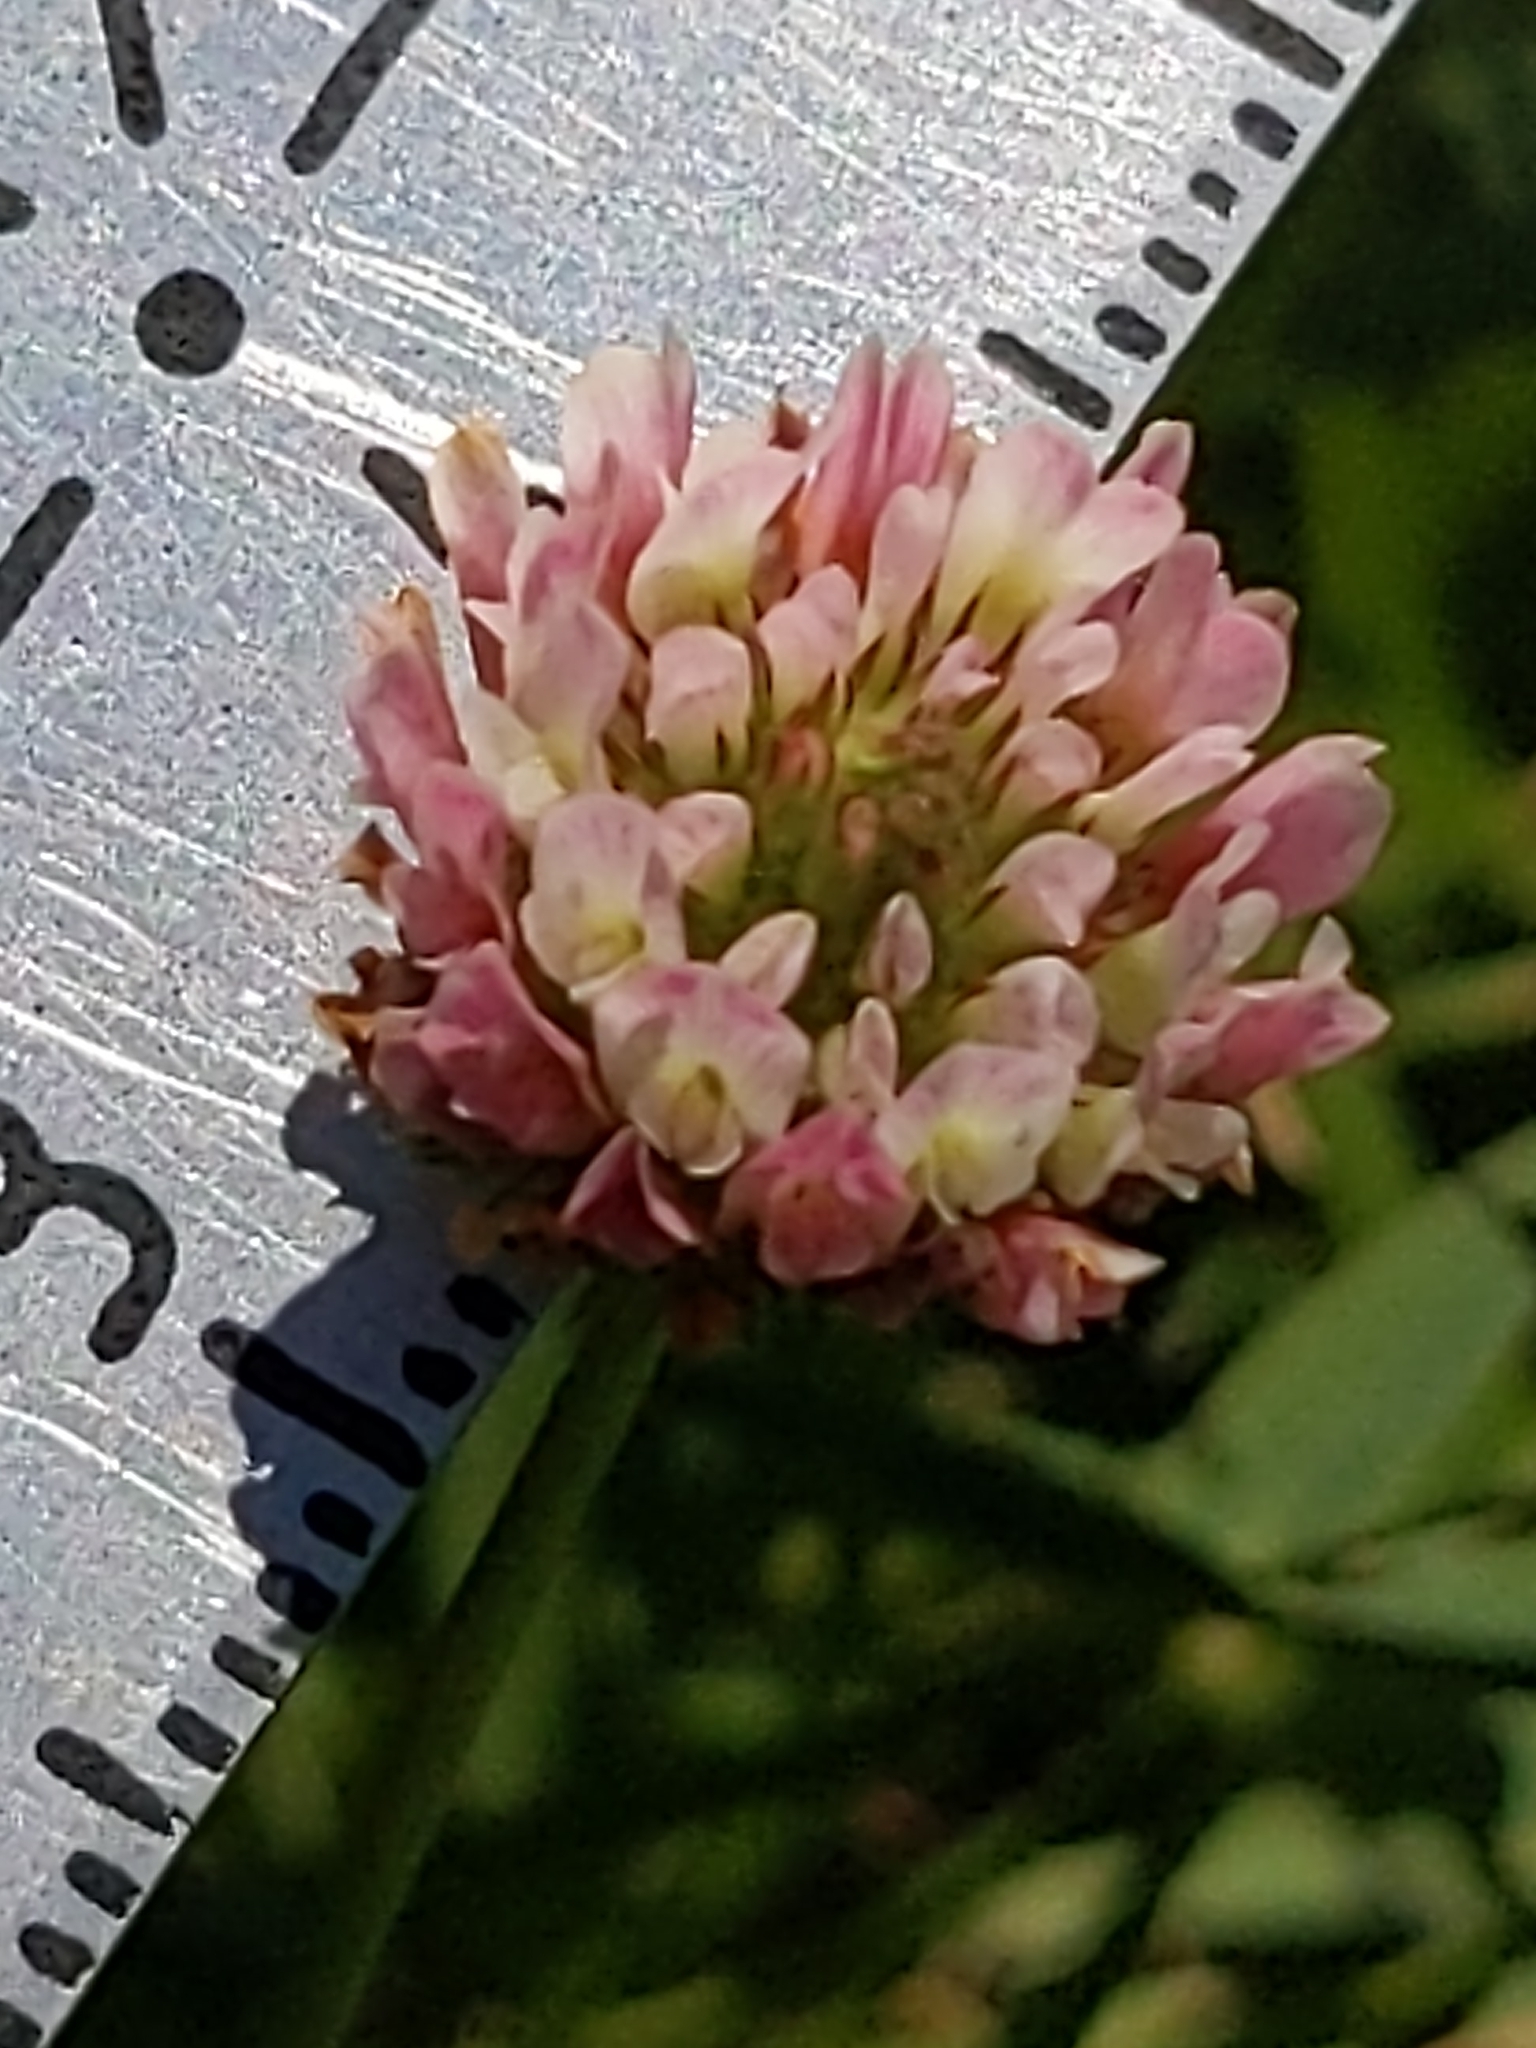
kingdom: Plantae
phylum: Tracheophyta
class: Magnoliopsida
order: Fabales
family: Fabaceae
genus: Trifolium
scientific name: Trifolium fragiferum
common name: Strawberry clover
